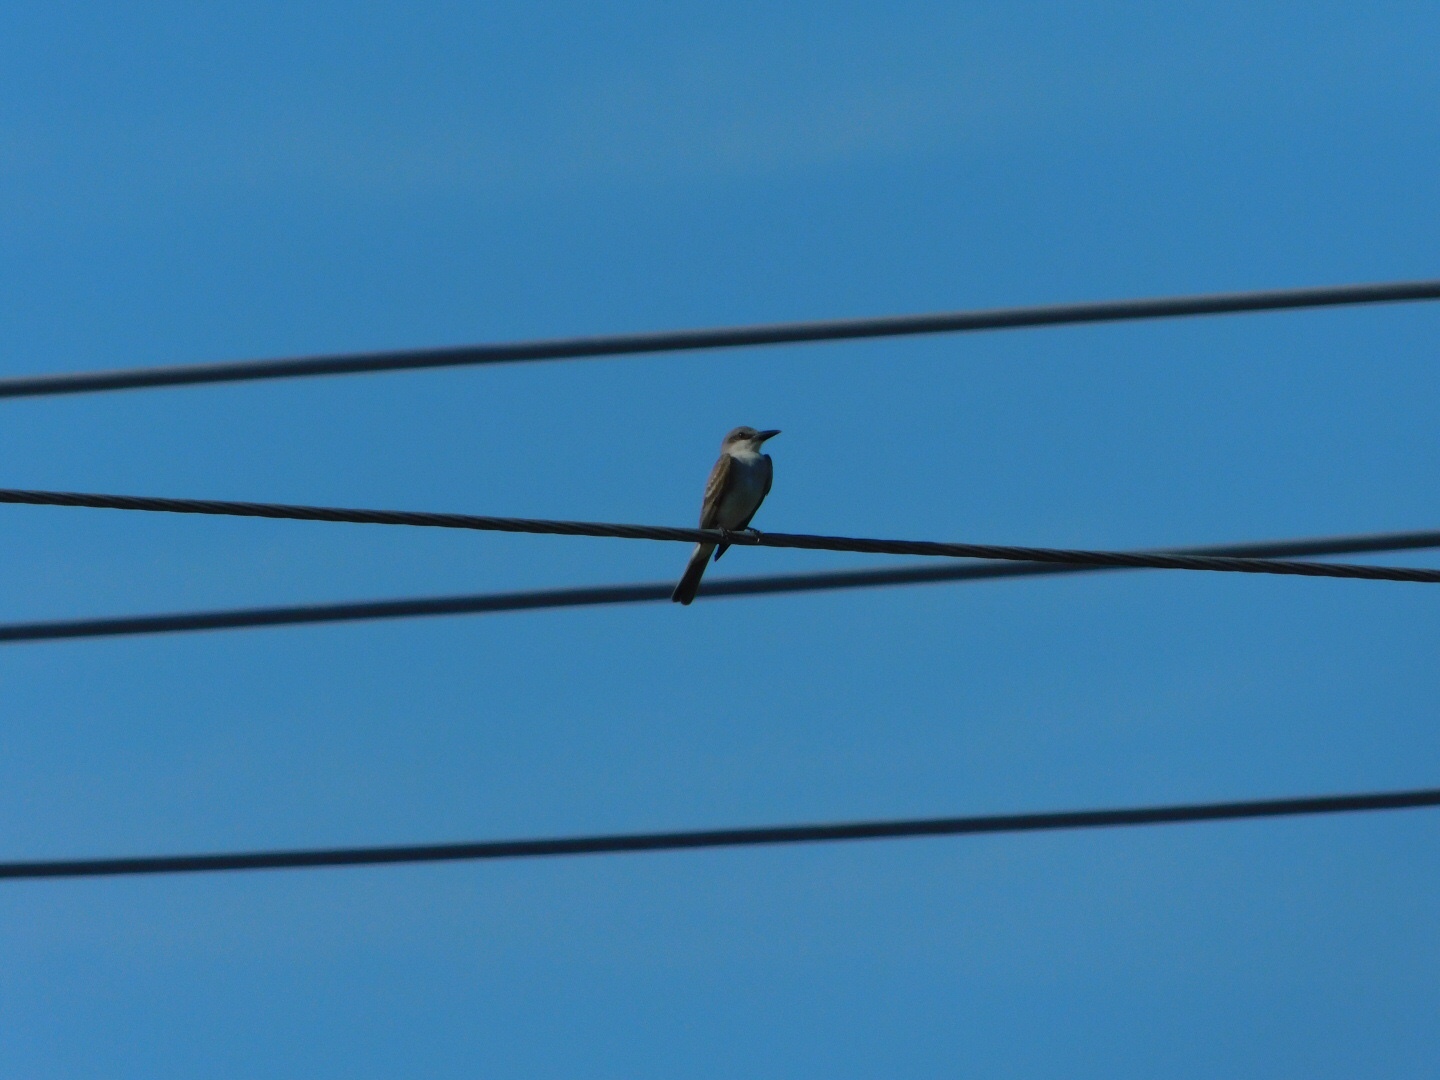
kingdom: Animalia
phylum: Chordata
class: Aves
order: Passeriformes
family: Tyrannidae
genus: Tyrannus
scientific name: Tyrannus dominicensis
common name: Gray kingbird
